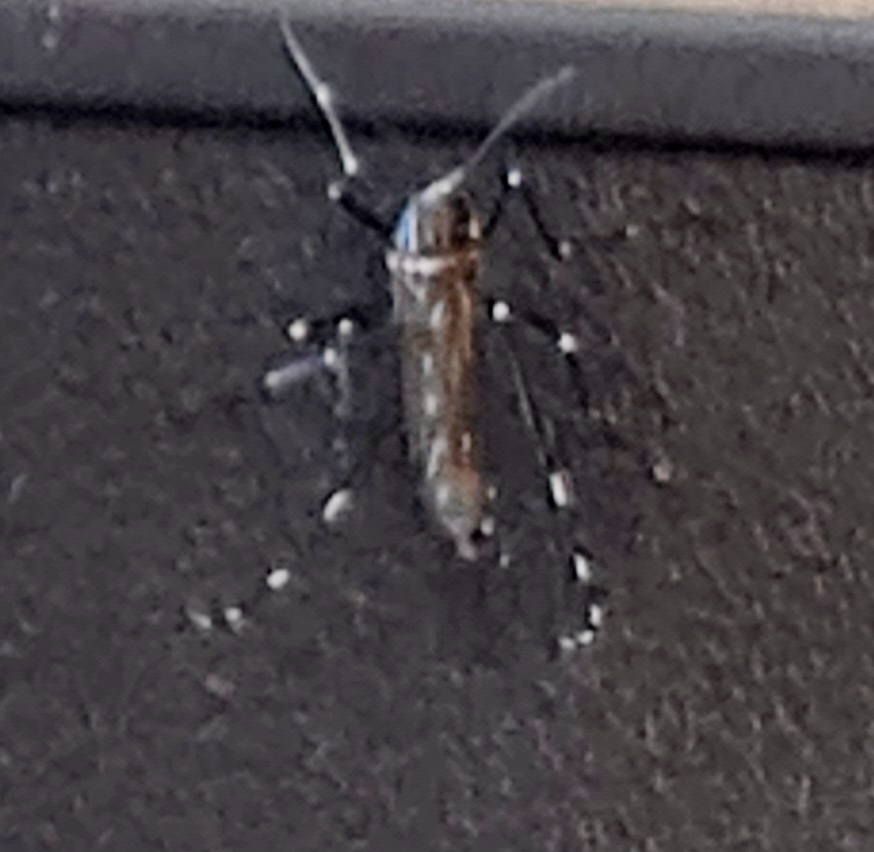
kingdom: Animalia
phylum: Arthropoda
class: Insecta
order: Diptera
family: Culicidae
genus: Aedes
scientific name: Aedes albopictus
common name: Tiger mosquito
